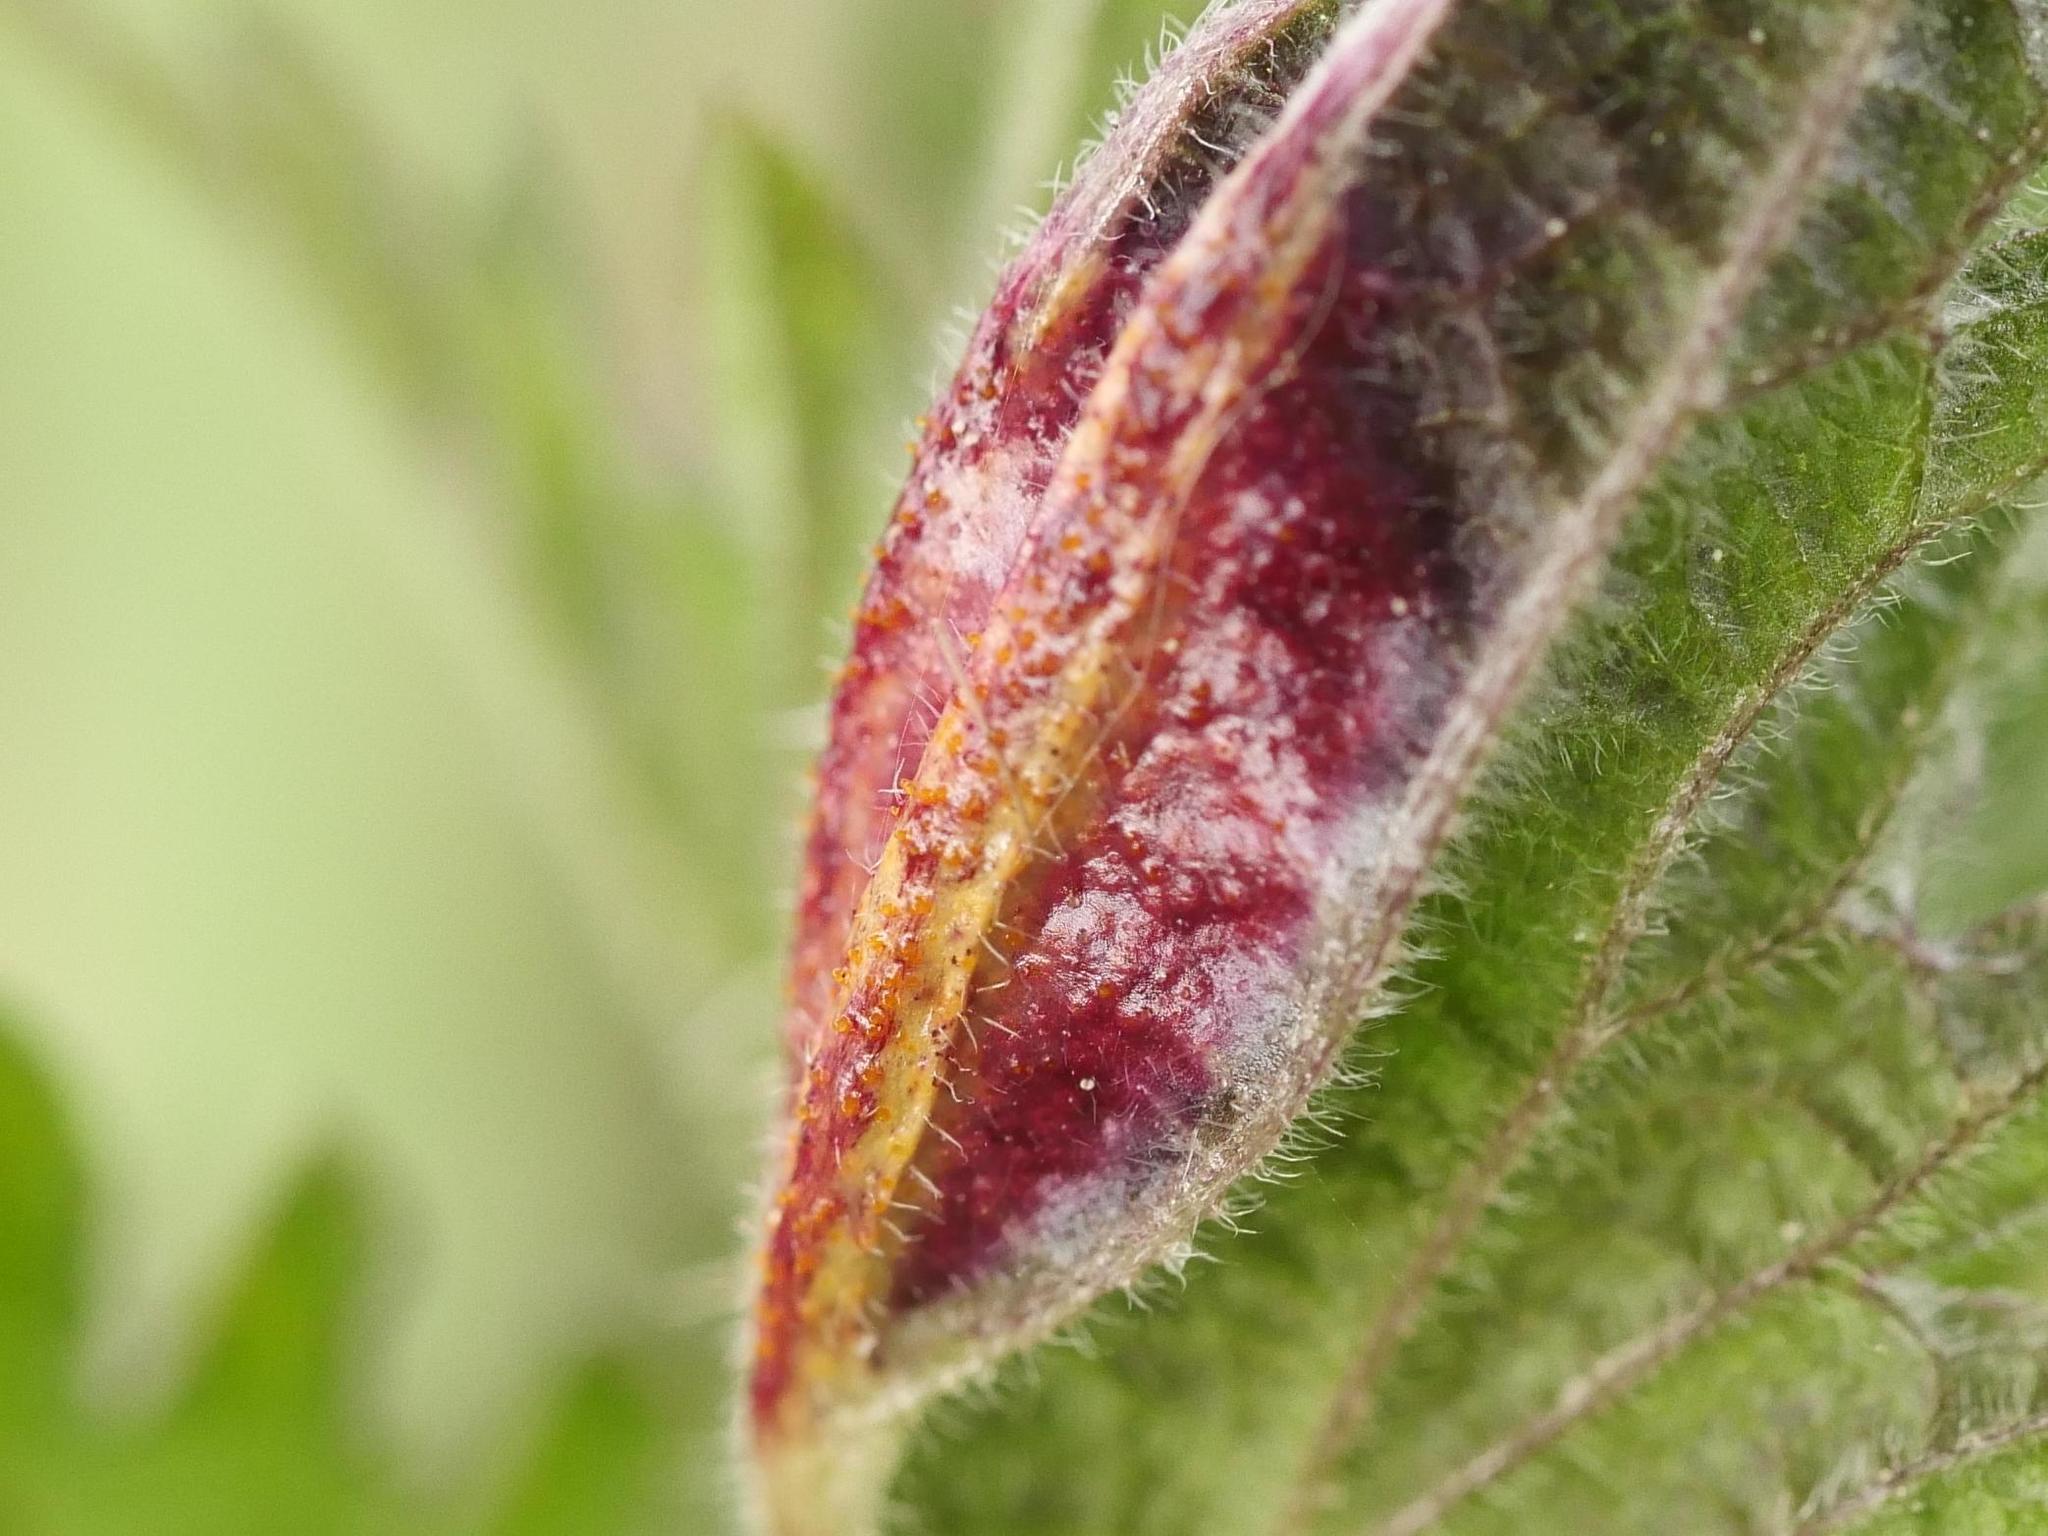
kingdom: Fungi
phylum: Basidiomycota
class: Pucciniomycetes
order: Pucciniales
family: Pucciniaceae
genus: Puccinia
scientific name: Puccinia urticata
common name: Nettle clustercup rust fungus
